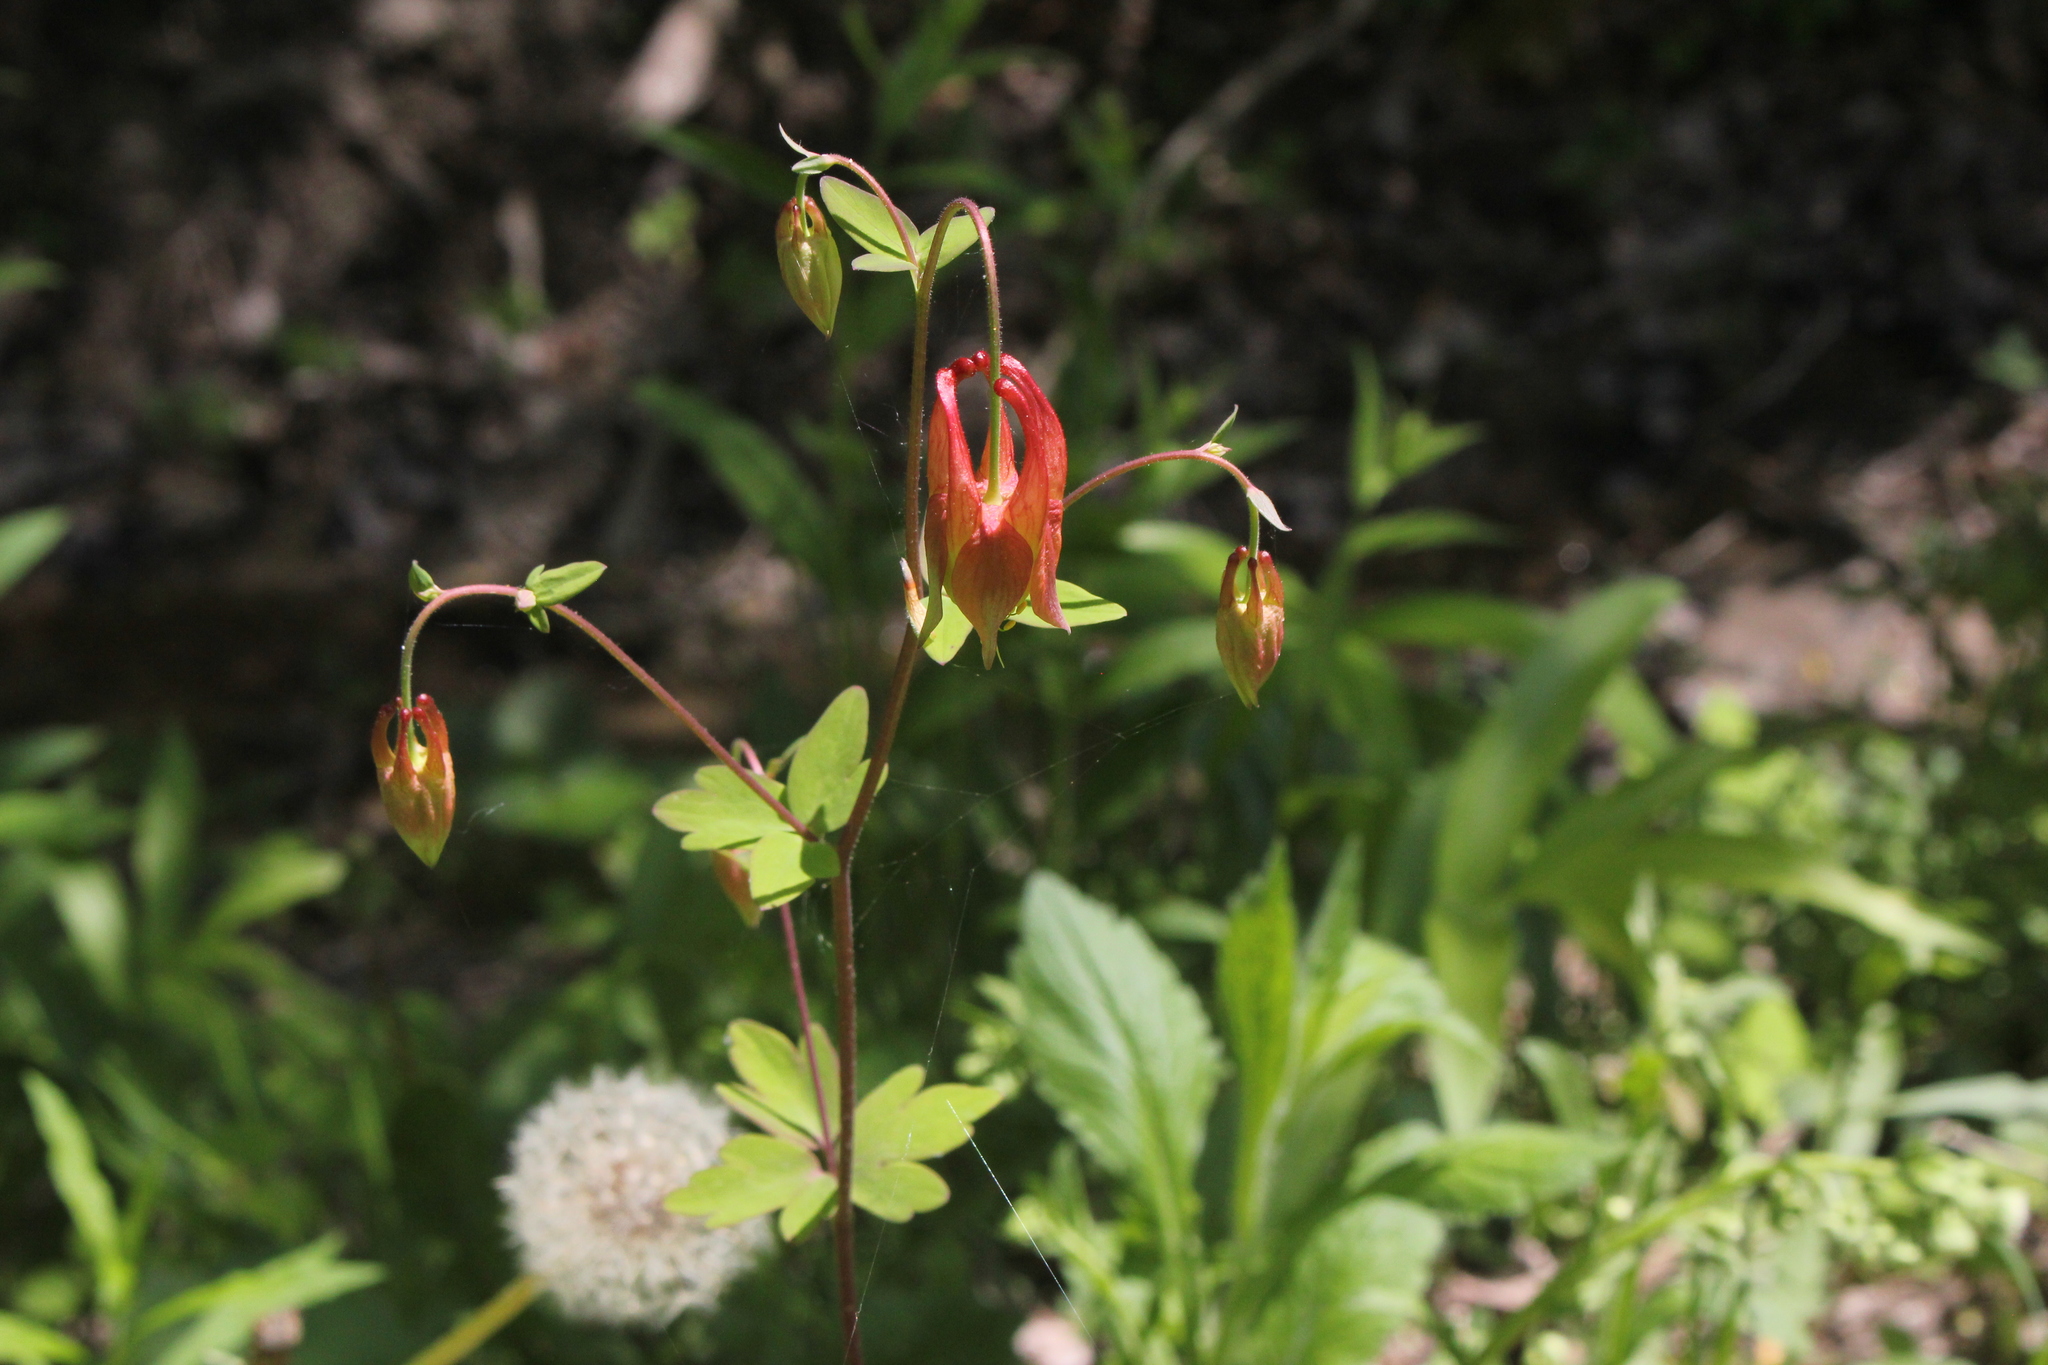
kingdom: Plantae
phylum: Tracheophyta
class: Magnoliopsida
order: Ranunculales
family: Ranunculaceae
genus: Aquilegia
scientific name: Aquilegia canadensis
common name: American columbine
